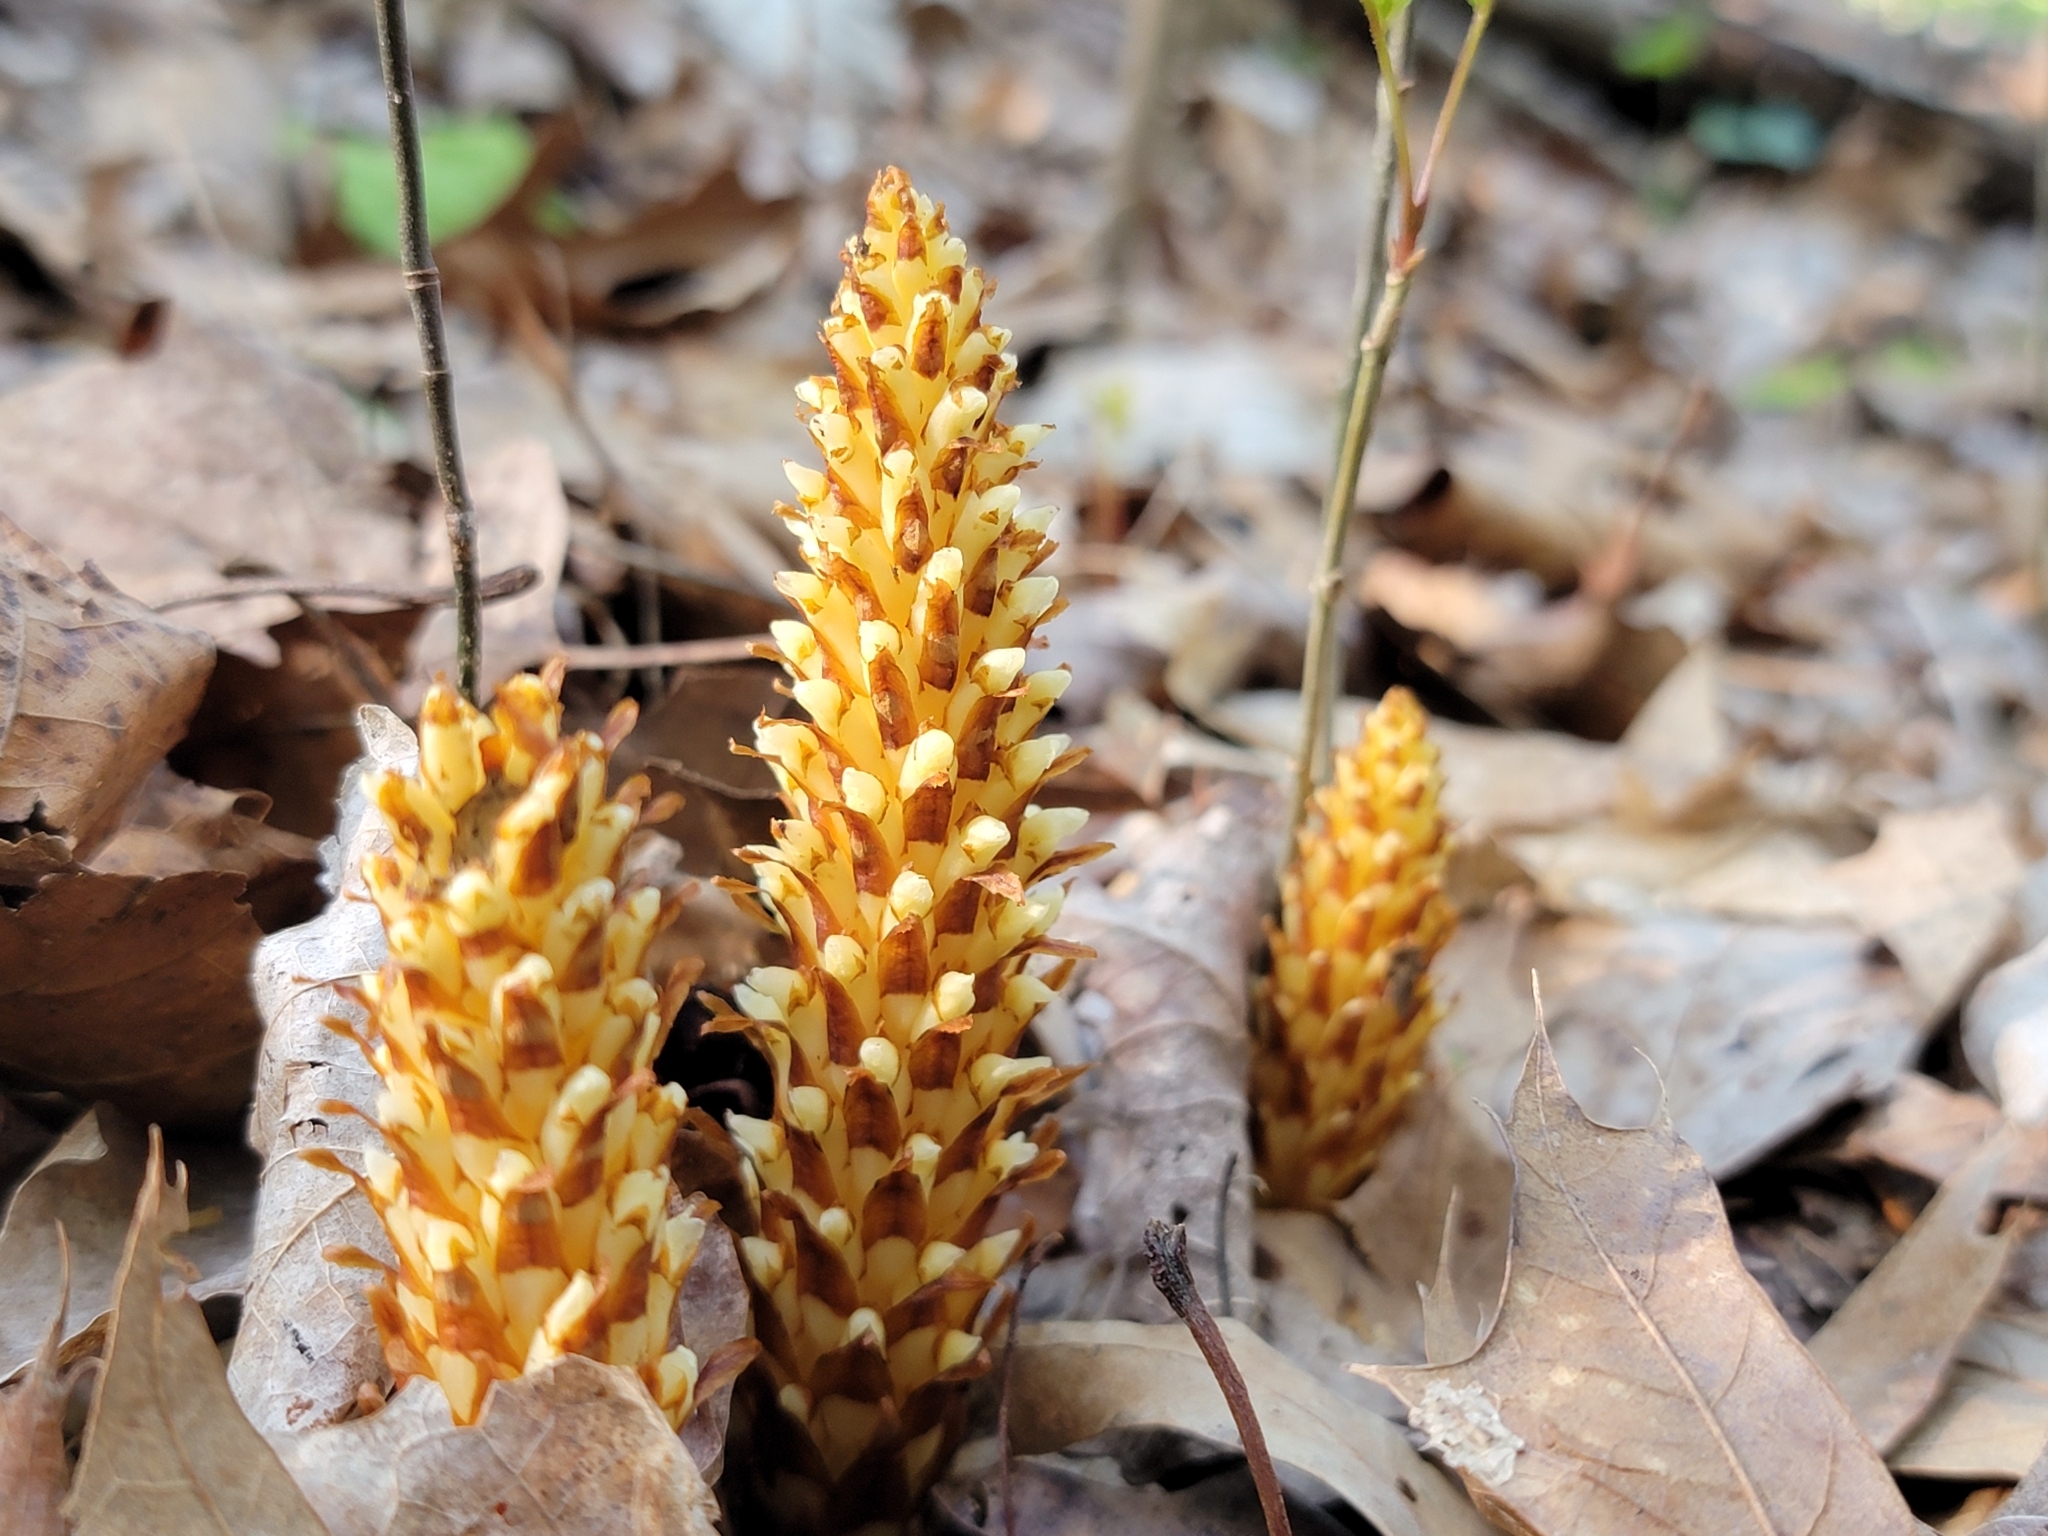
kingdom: Plantae
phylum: Tracheophyta
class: Magnoliopsida
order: Lamiales
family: Orobanchaceae
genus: Conopholis
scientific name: Conopholis americana
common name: American cancer-root
